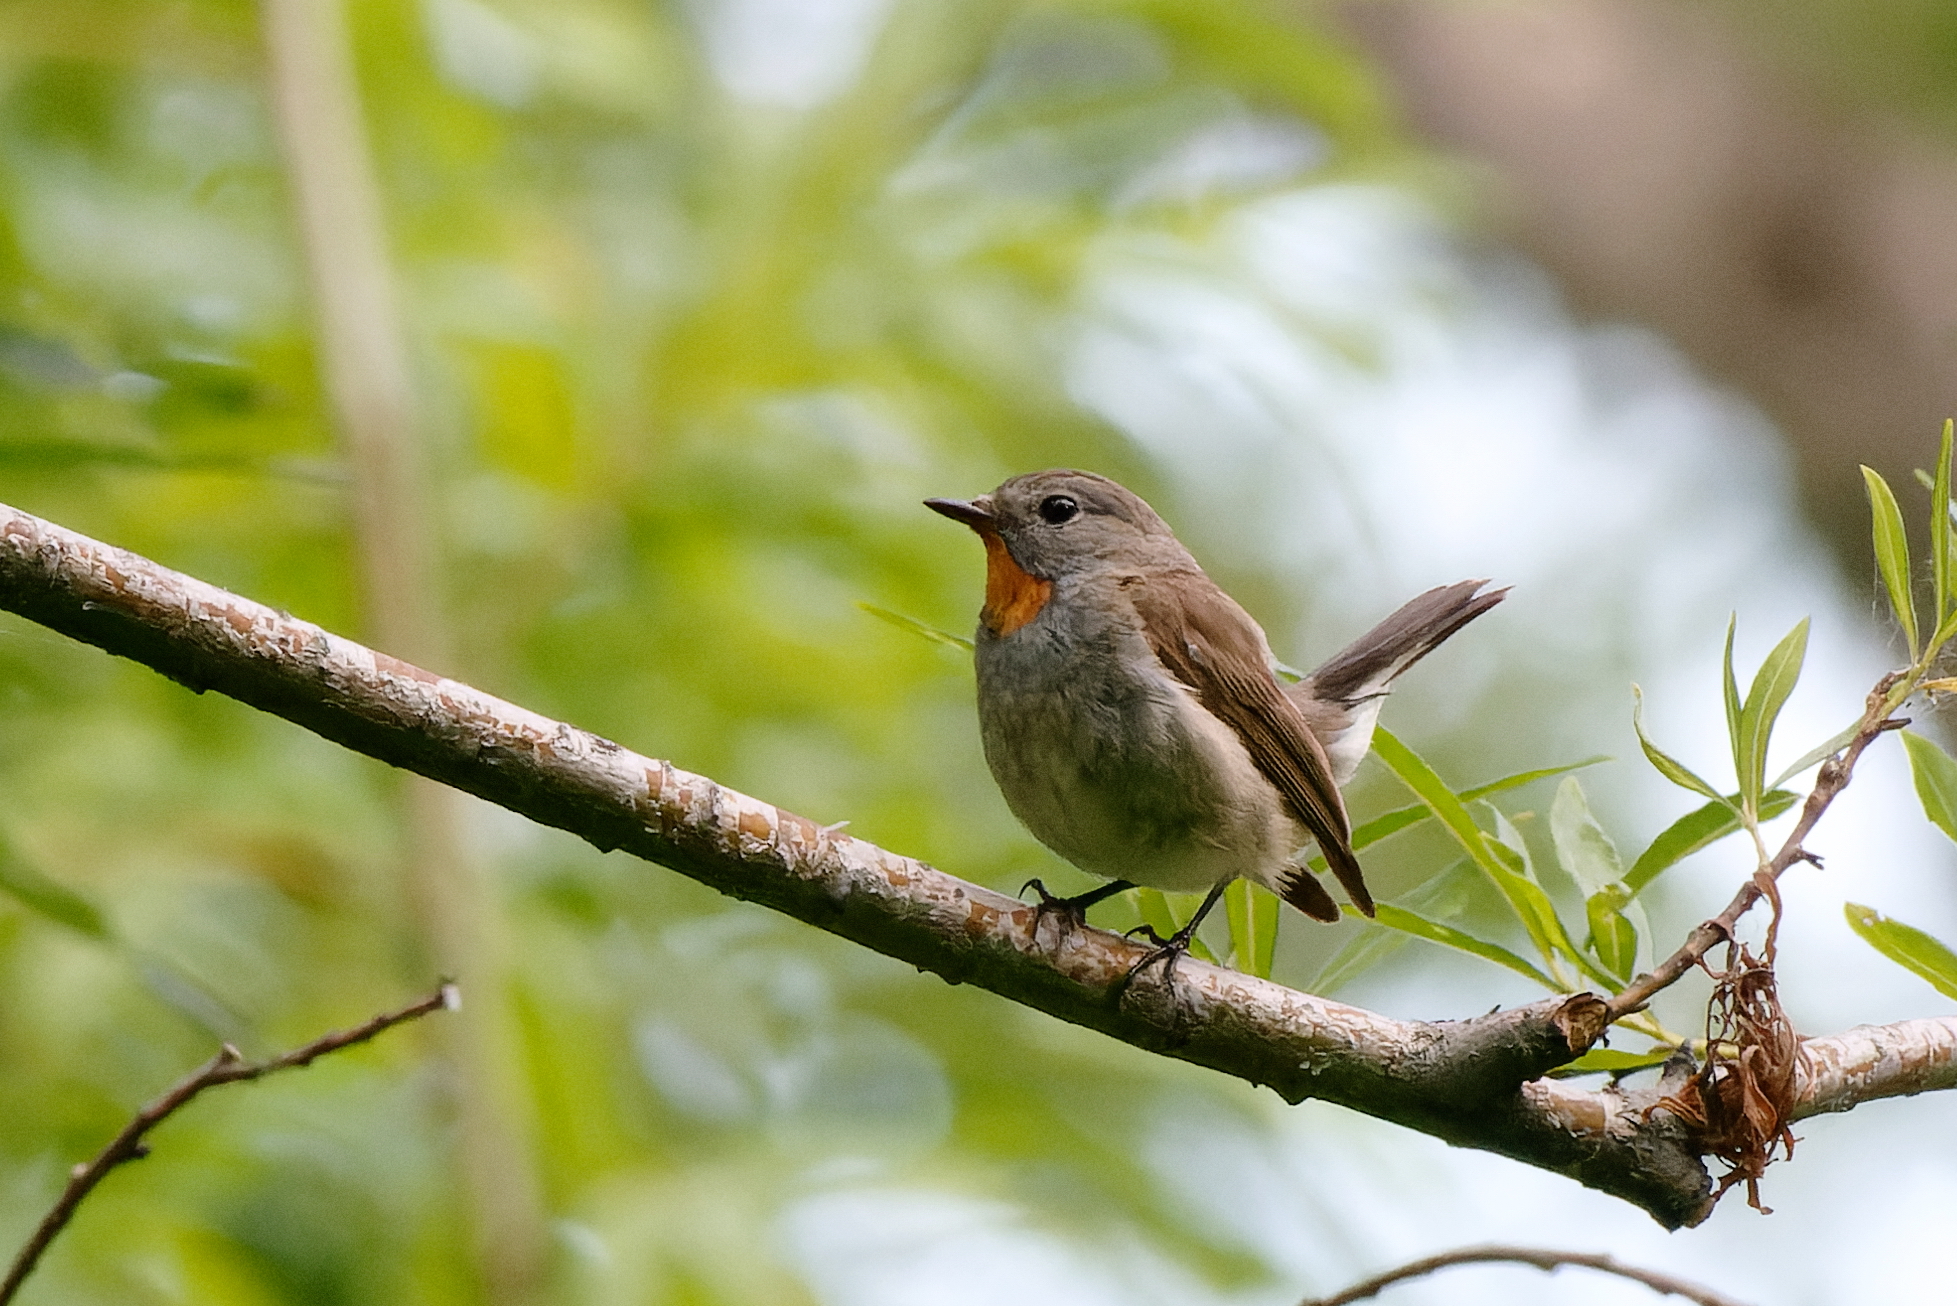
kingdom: Animalia
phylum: Chordata
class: Aves
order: Passeriformes
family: Muscicapidae
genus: Ficedula
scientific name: Ficedula albicilla
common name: Taiga flycatcher
